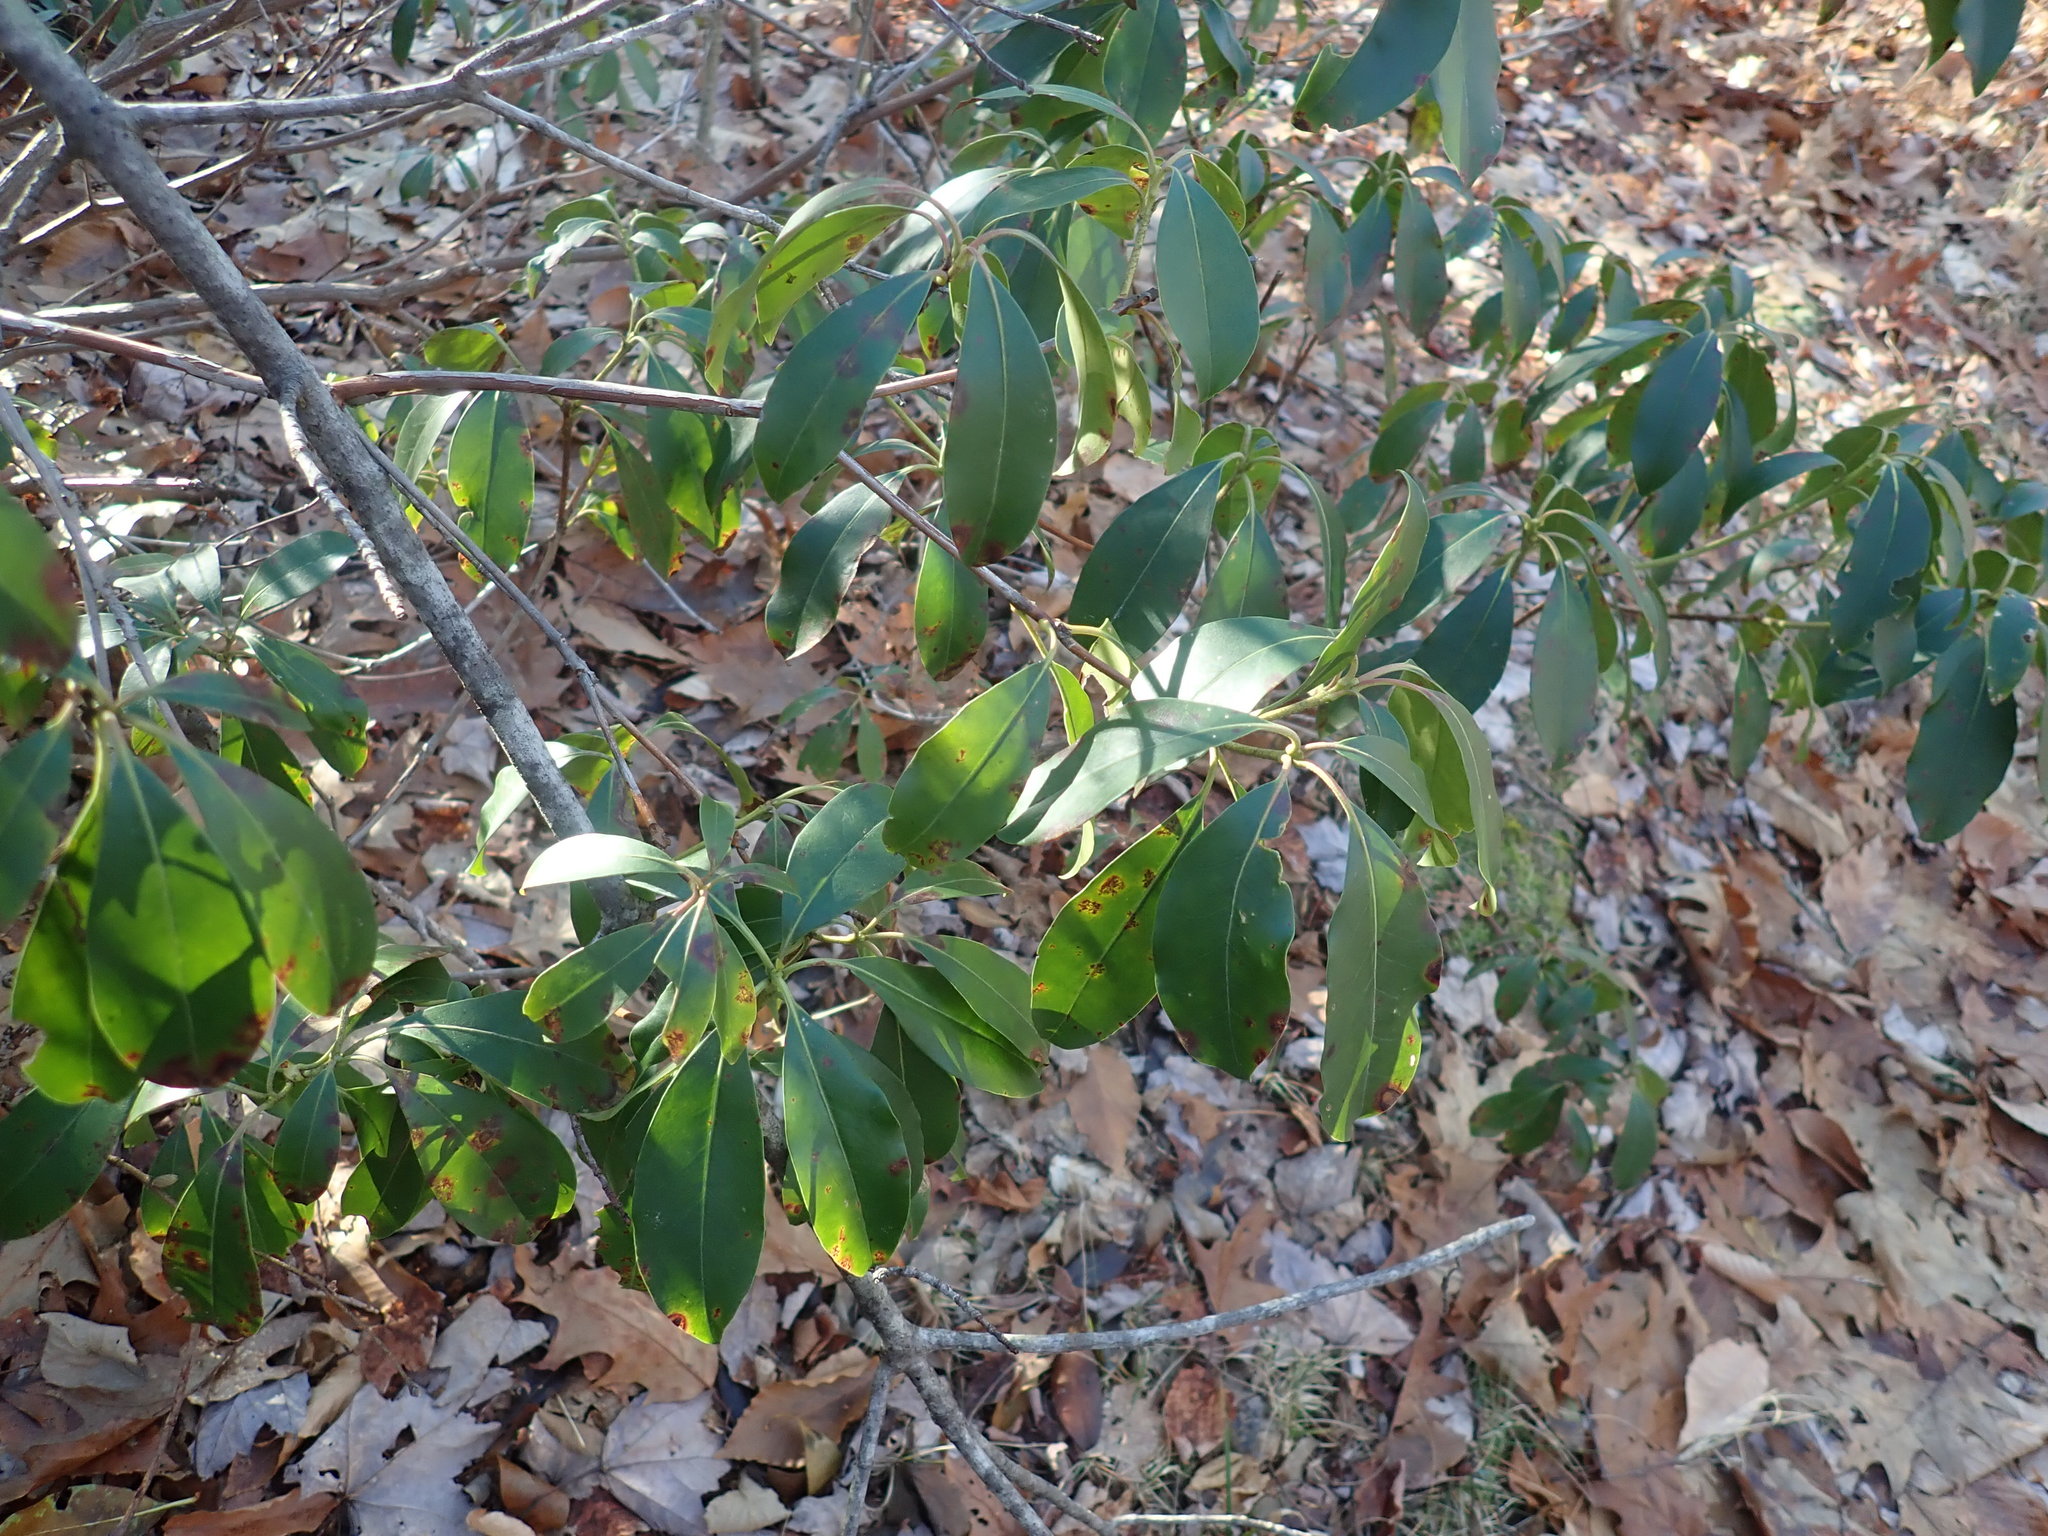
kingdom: Plantae
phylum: Tracheophyta
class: Magnoliopsida
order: Ericales
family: Ericaceae
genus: Kalmia
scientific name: Kalmia latifolia
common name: Mountain-laurel
